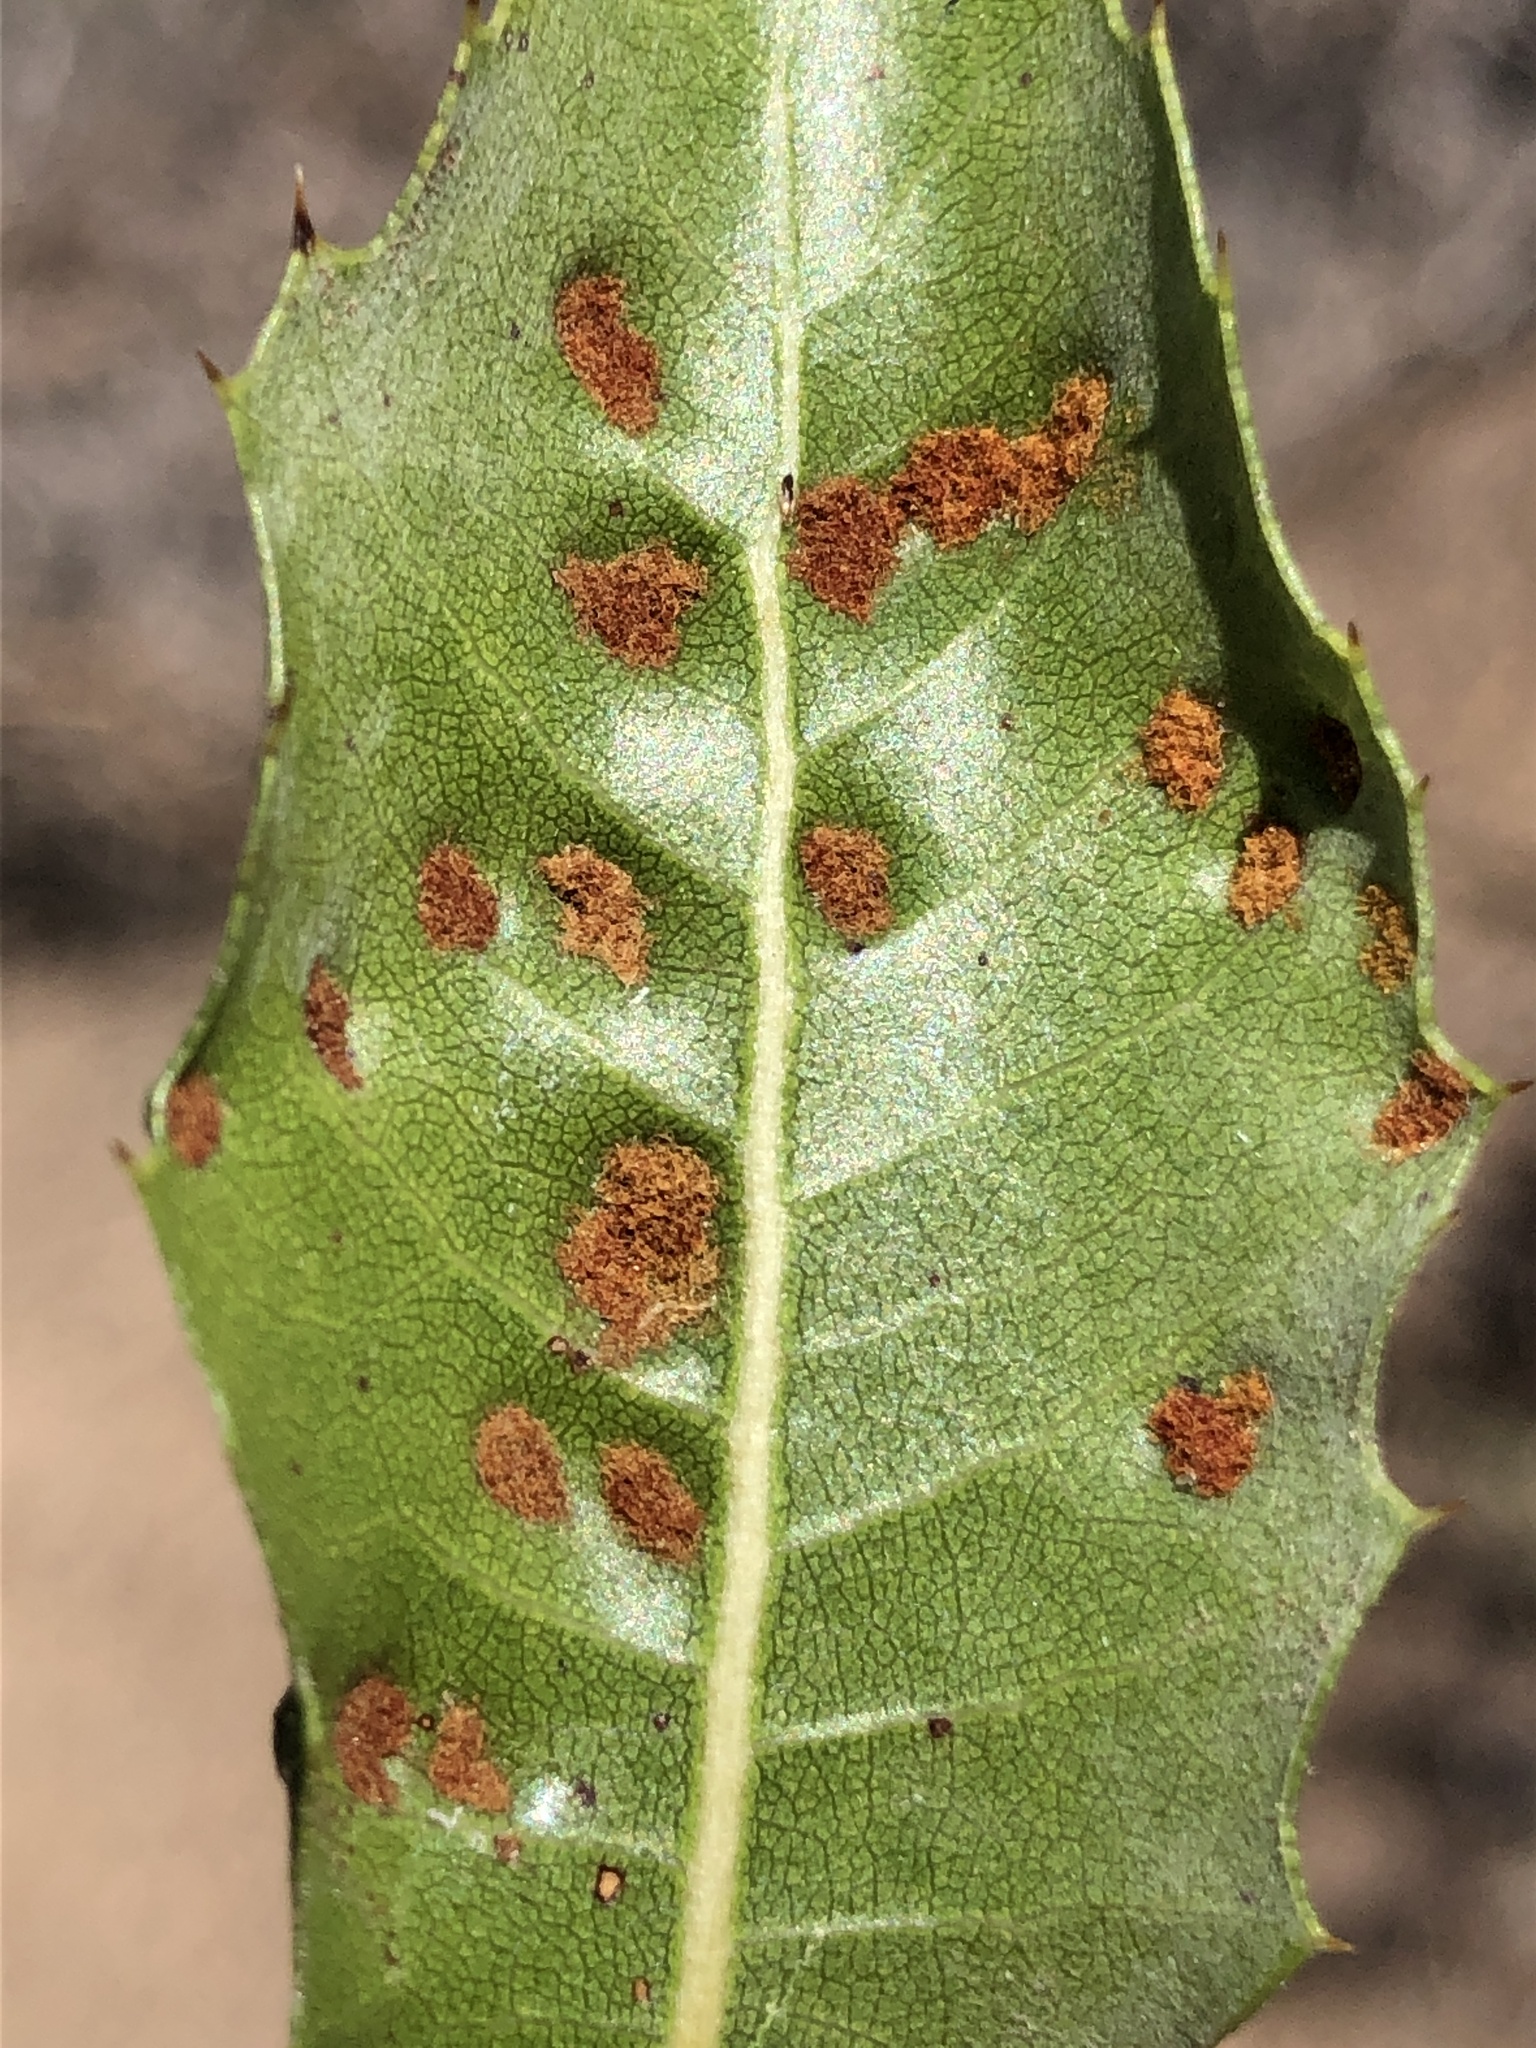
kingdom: Animalia
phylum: Arthropoda
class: Arachnida
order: Trombidiformes
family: Eriophyidae
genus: Aceria
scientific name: Aceria
